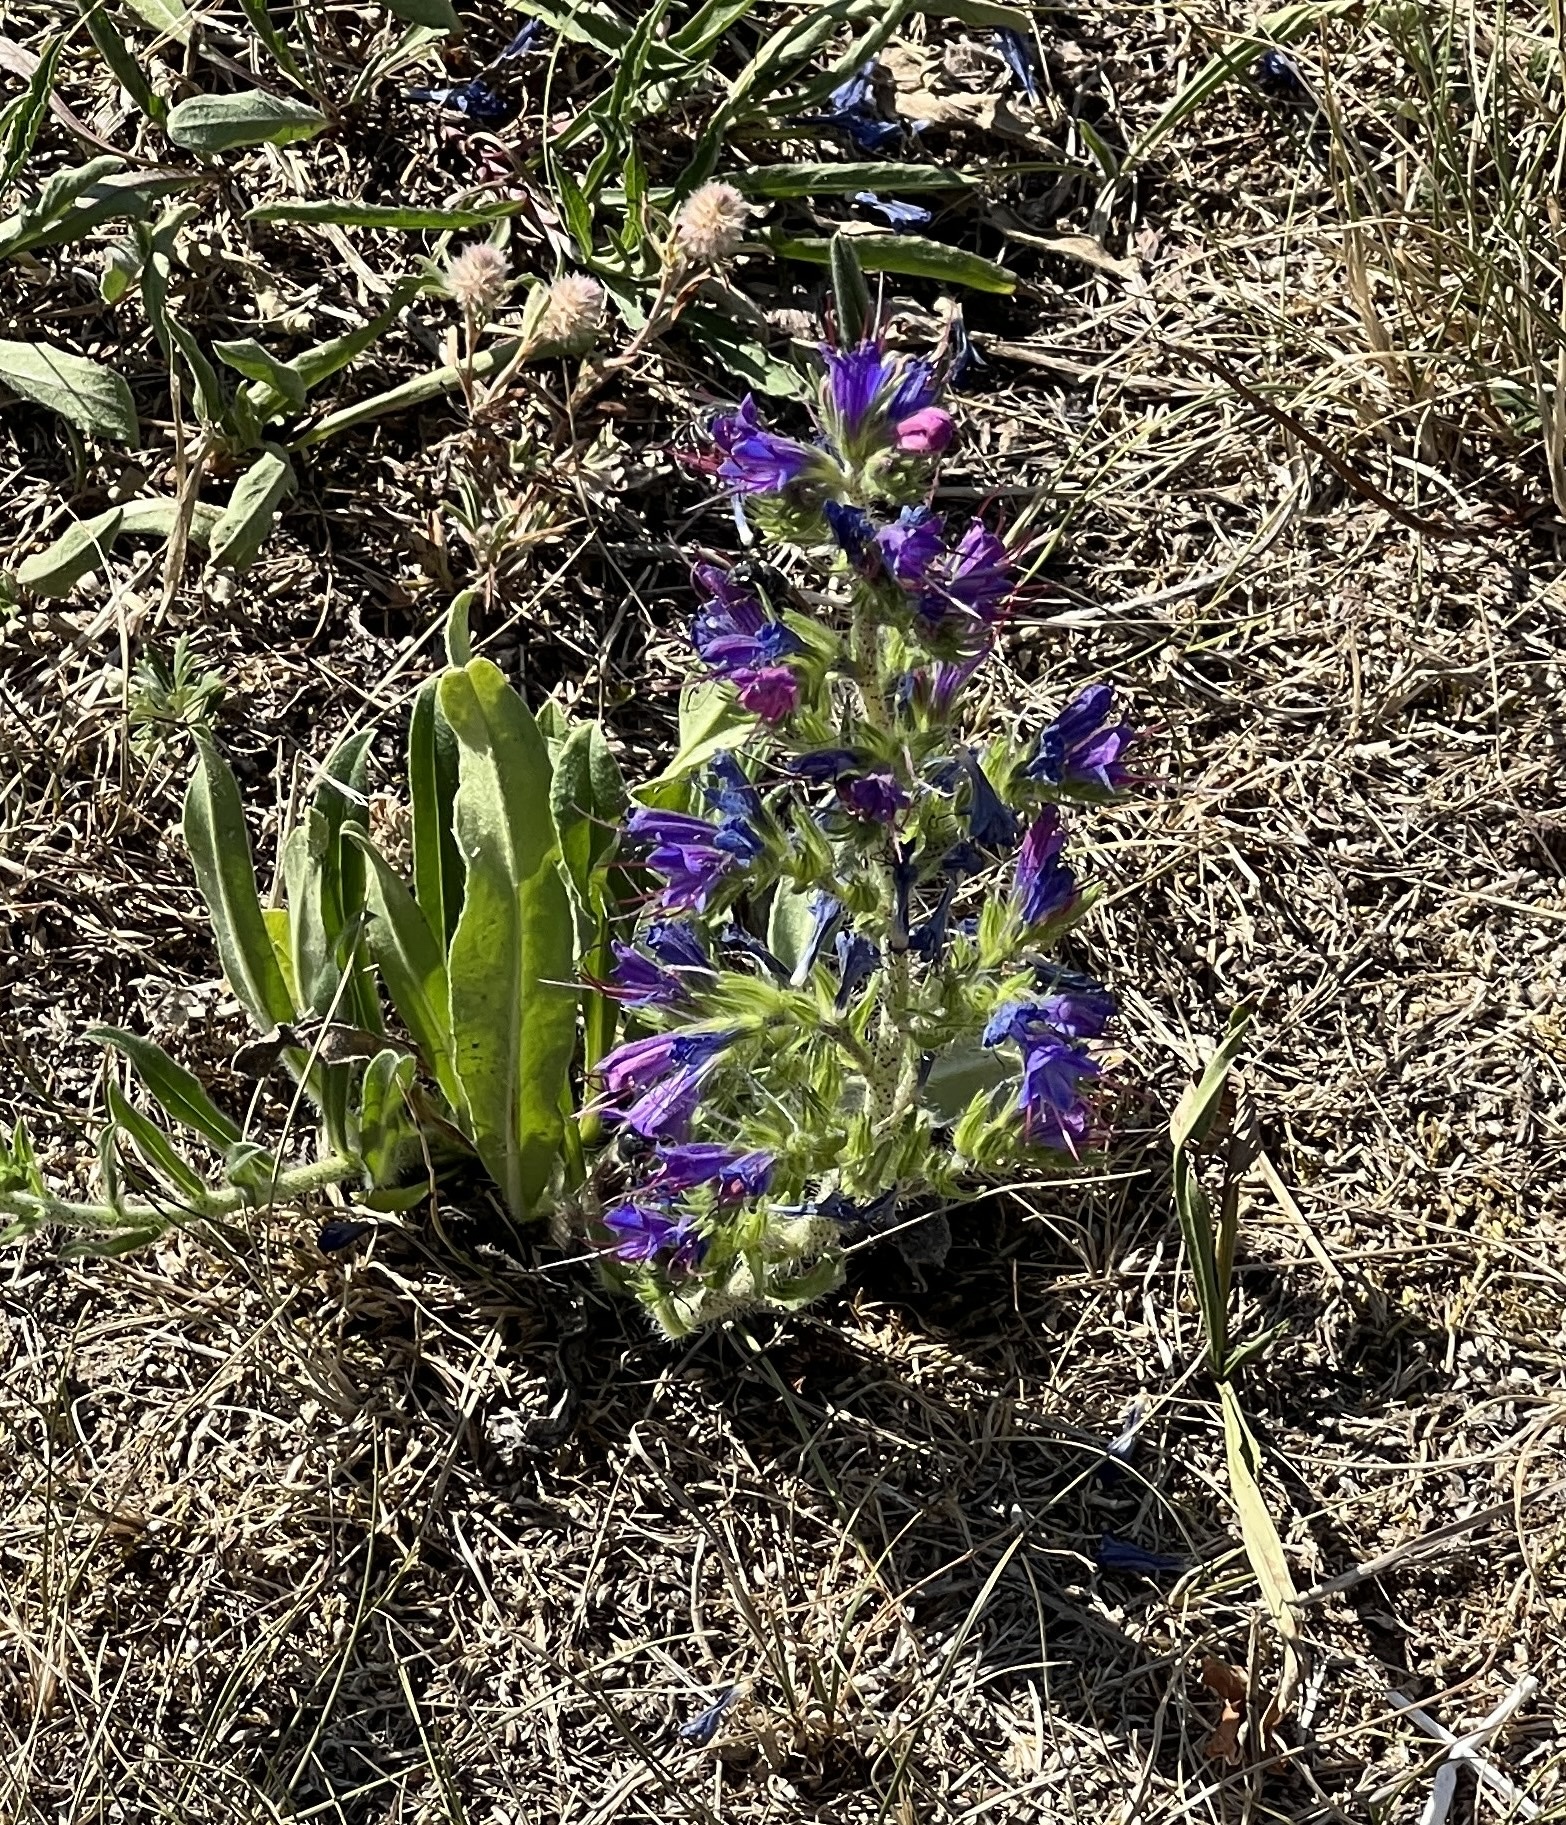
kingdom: Plantae
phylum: Tracheophyta
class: Magnoliopsida
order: Boraginales
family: Boraginaceae
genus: Echium
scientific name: Echium vulgare
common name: Common viper's bugloss
